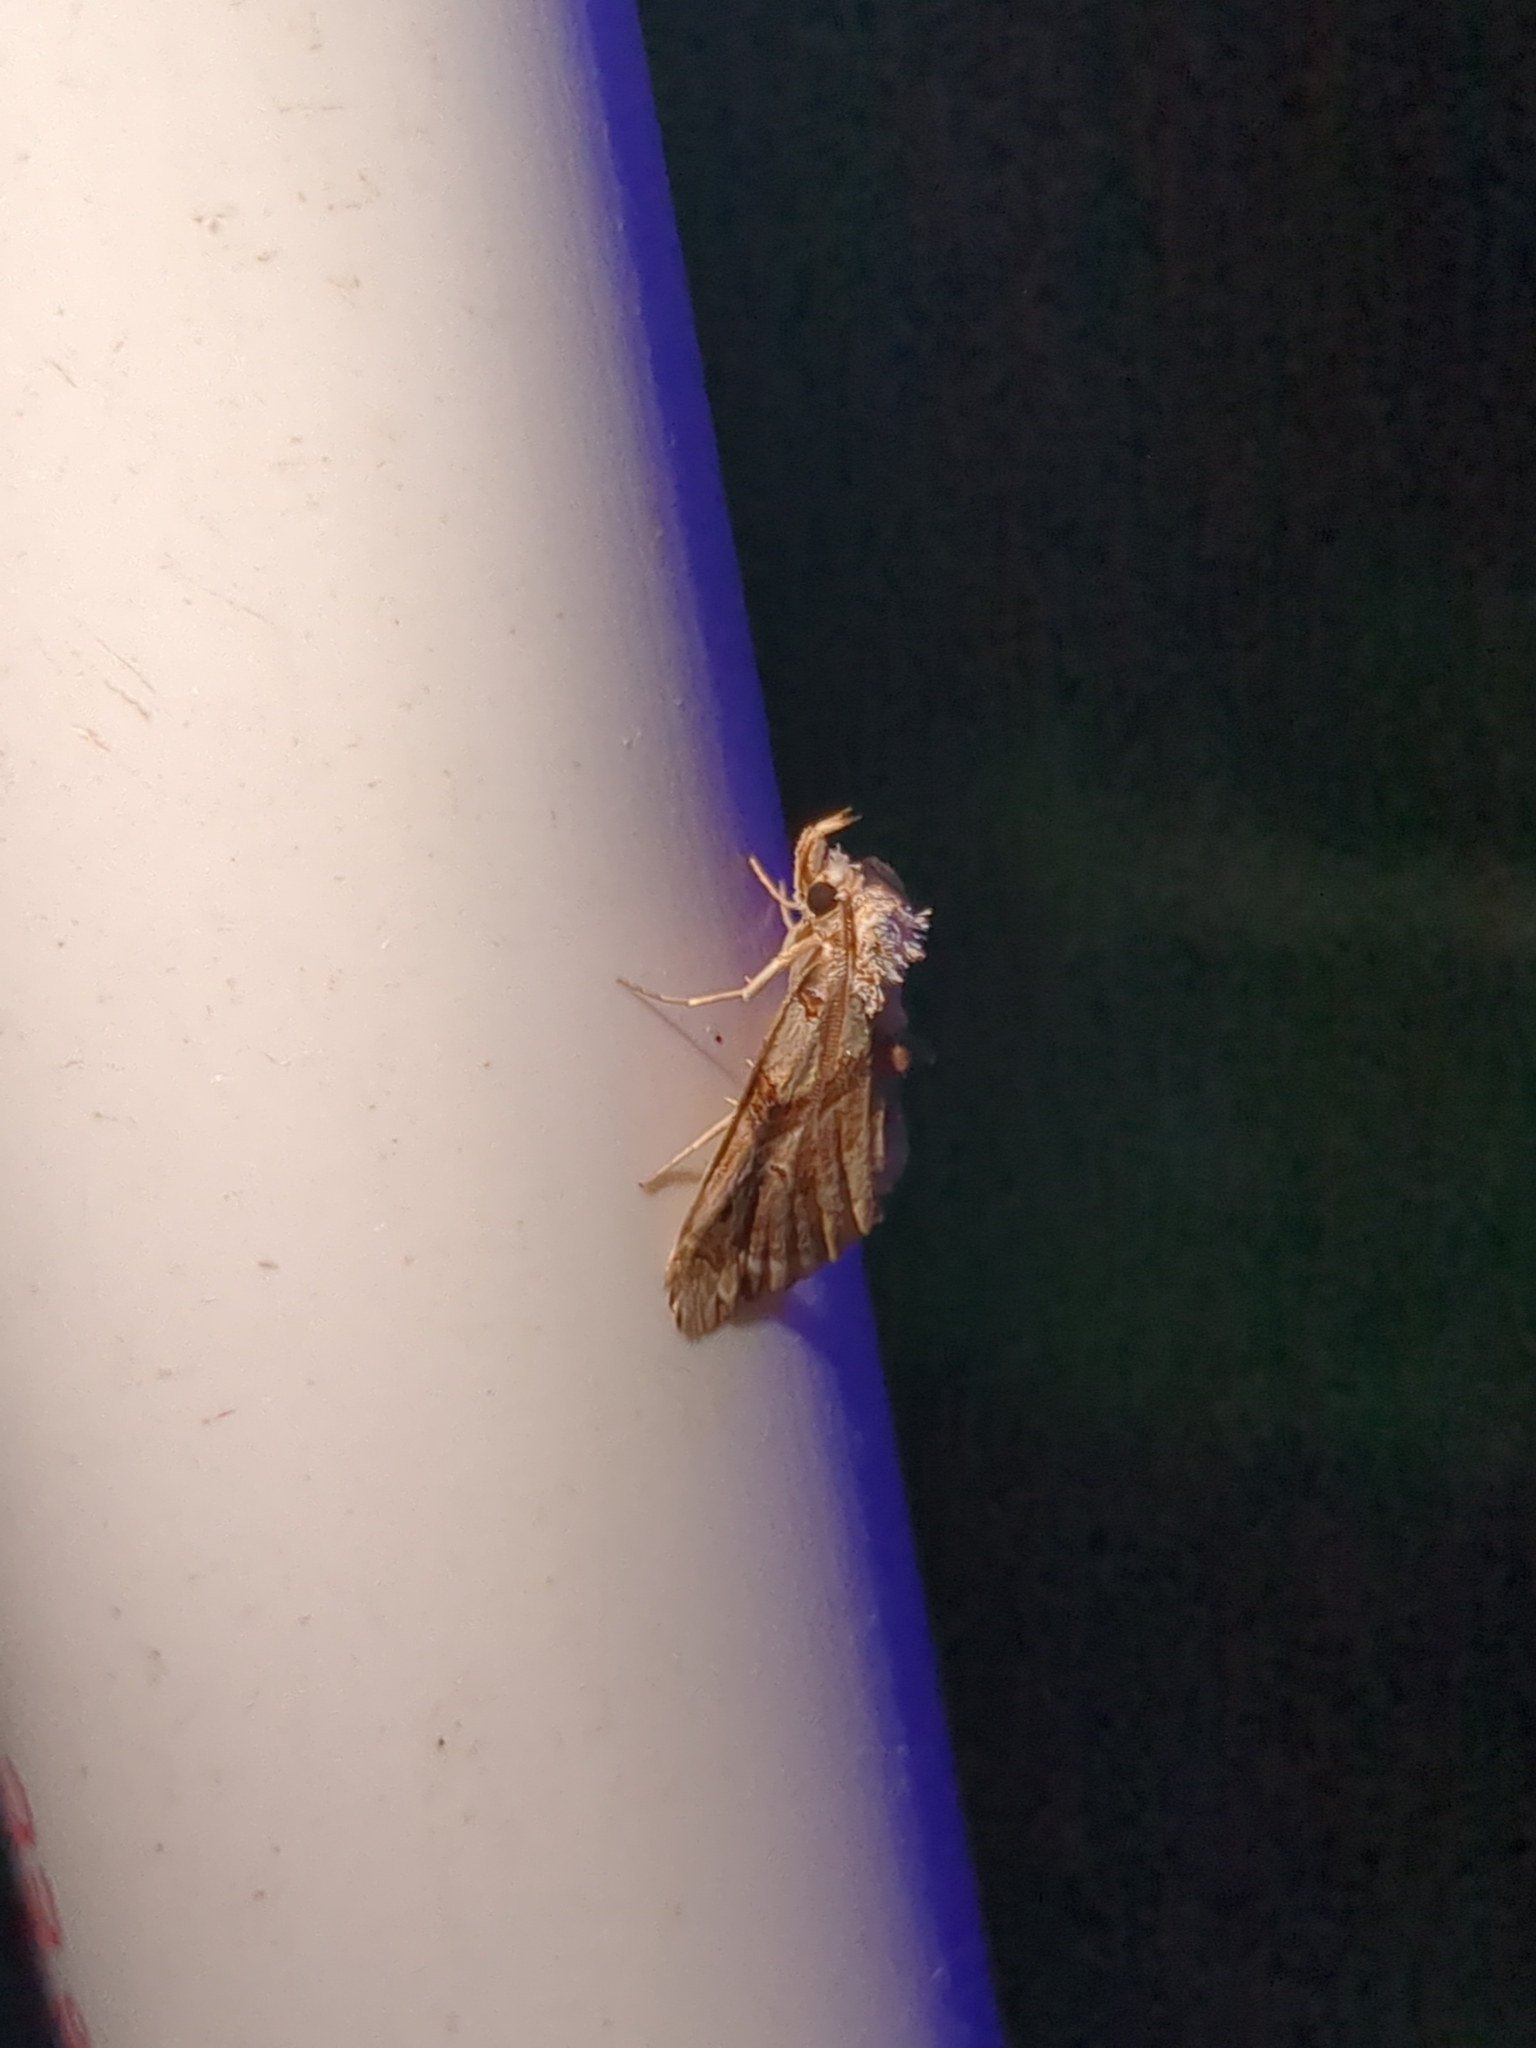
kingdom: Animalia
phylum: Arthropoda
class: Insecta
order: Lepidoptera
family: Erebidae
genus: Plusiodonta
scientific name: Plusiodonta compressipalpis
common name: Moonseed moth
